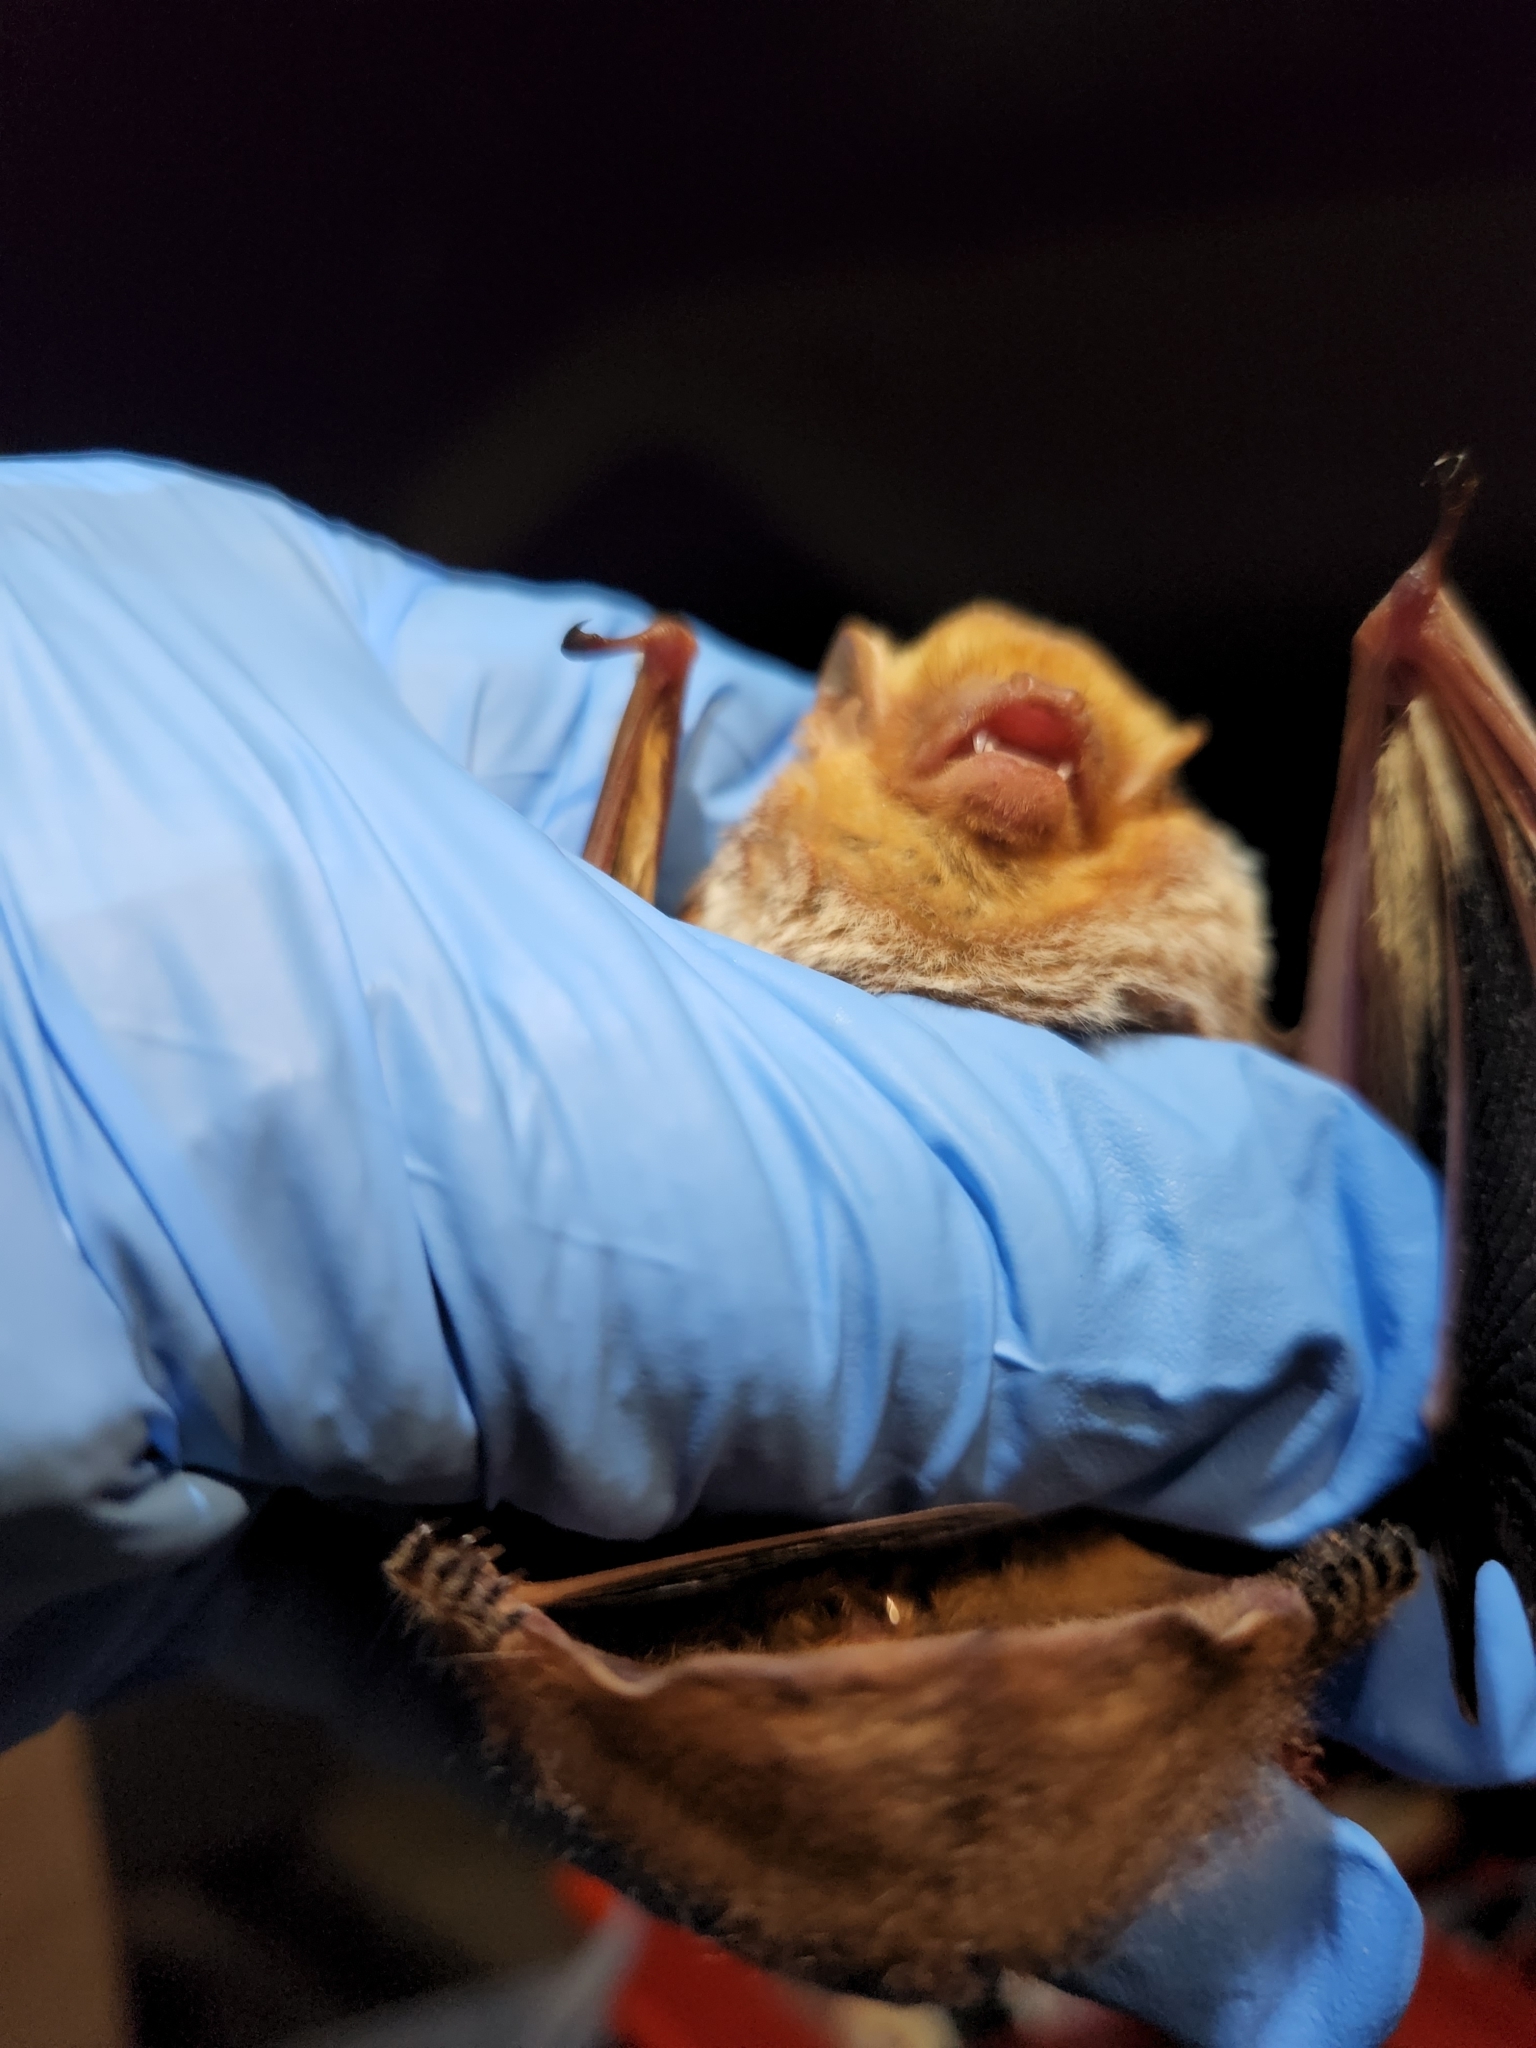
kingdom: Animalia
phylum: Chordata
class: Mammalia
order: Chiroptera
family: Vespertilionidae
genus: Lasiurus
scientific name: Lasiurus borealis
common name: Eastern red bat
